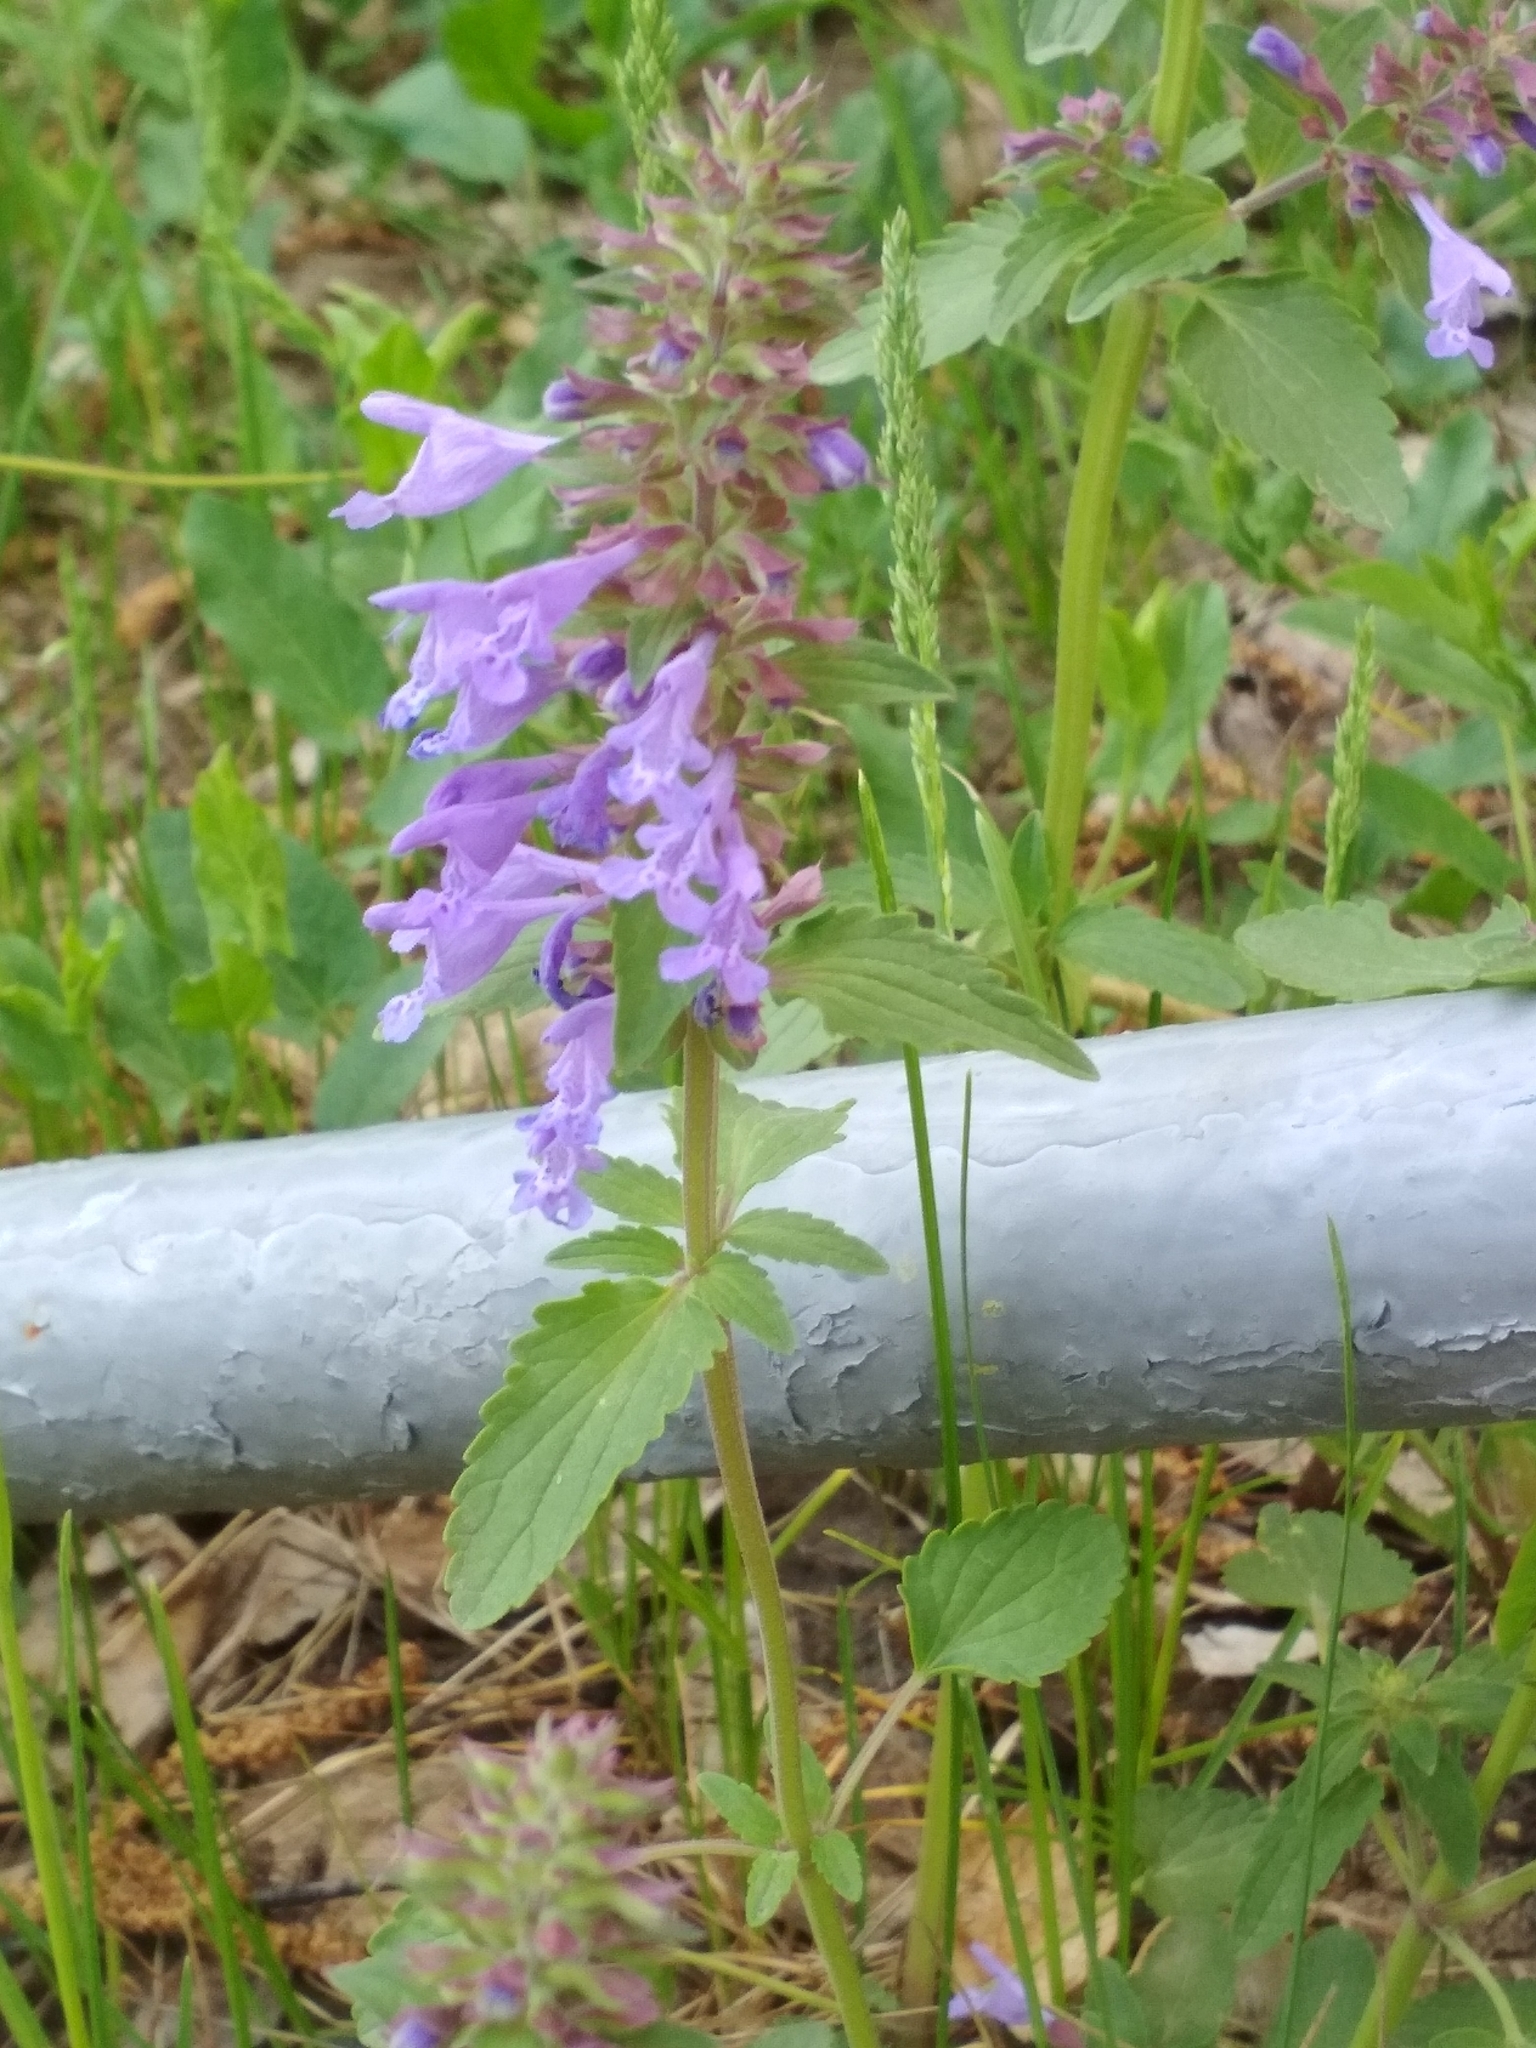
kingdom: Plantae
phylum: Tracheophyta
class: Magnoliopsida
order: Lamiales
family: Lamiaceae
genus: Dracocephalum
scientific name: Dracocephalum nutans
